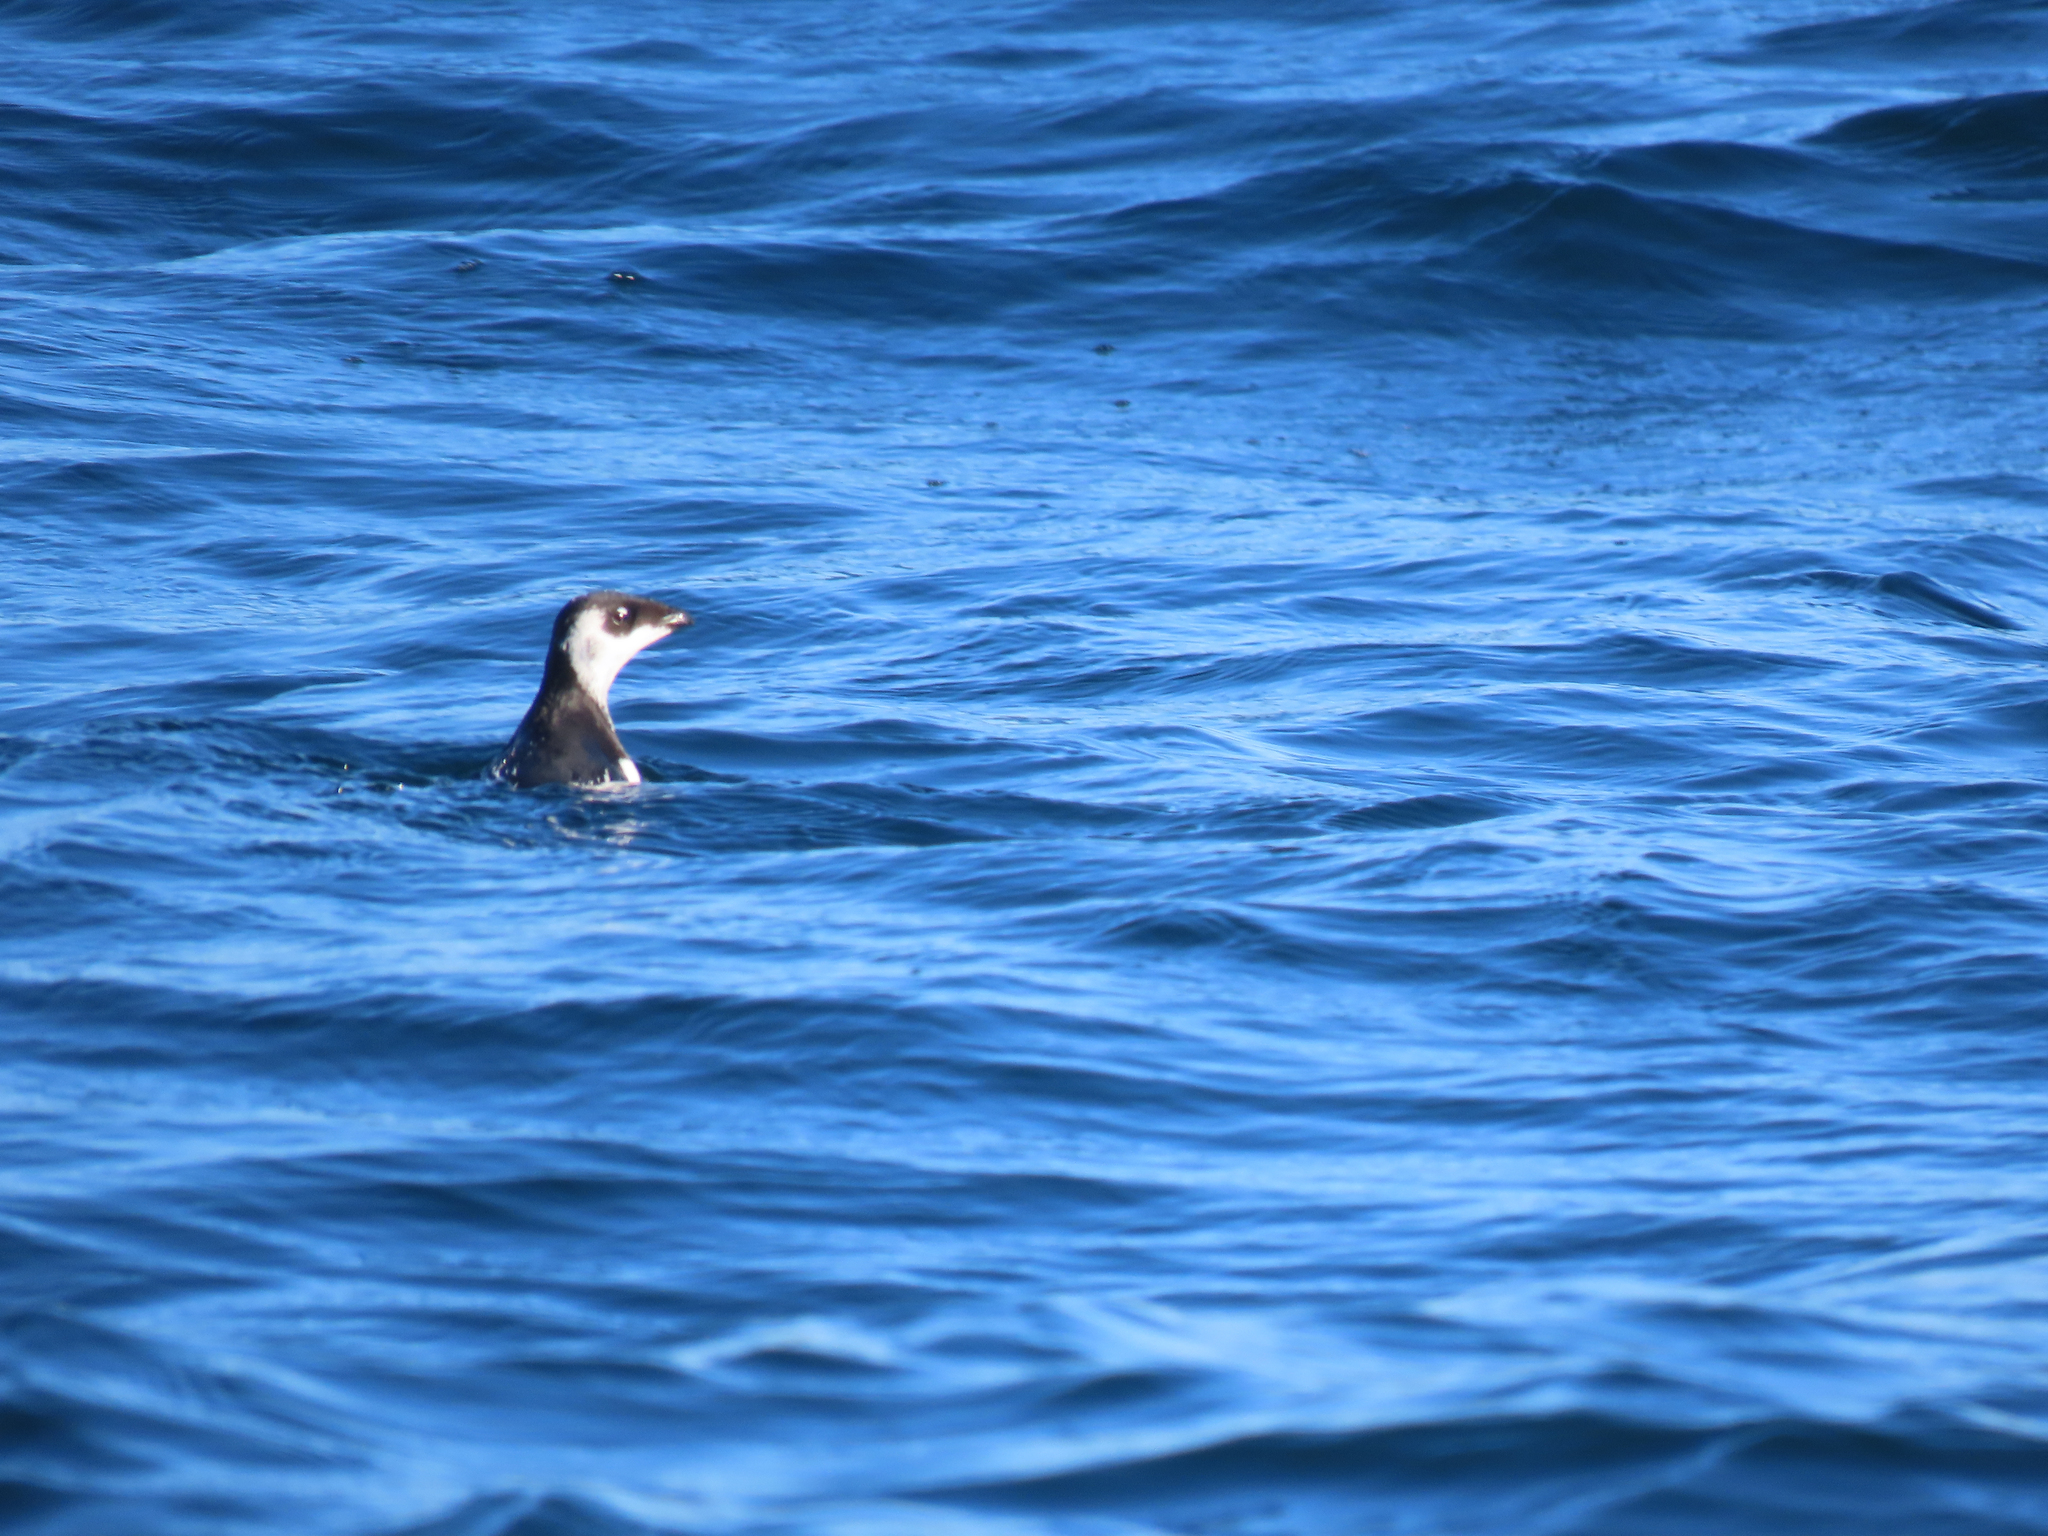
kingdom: Animalia
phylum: Chordata
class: Aves
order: Charadriiformes
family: Alcidae
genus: Alle
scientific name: Alle alle
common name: Little auk
